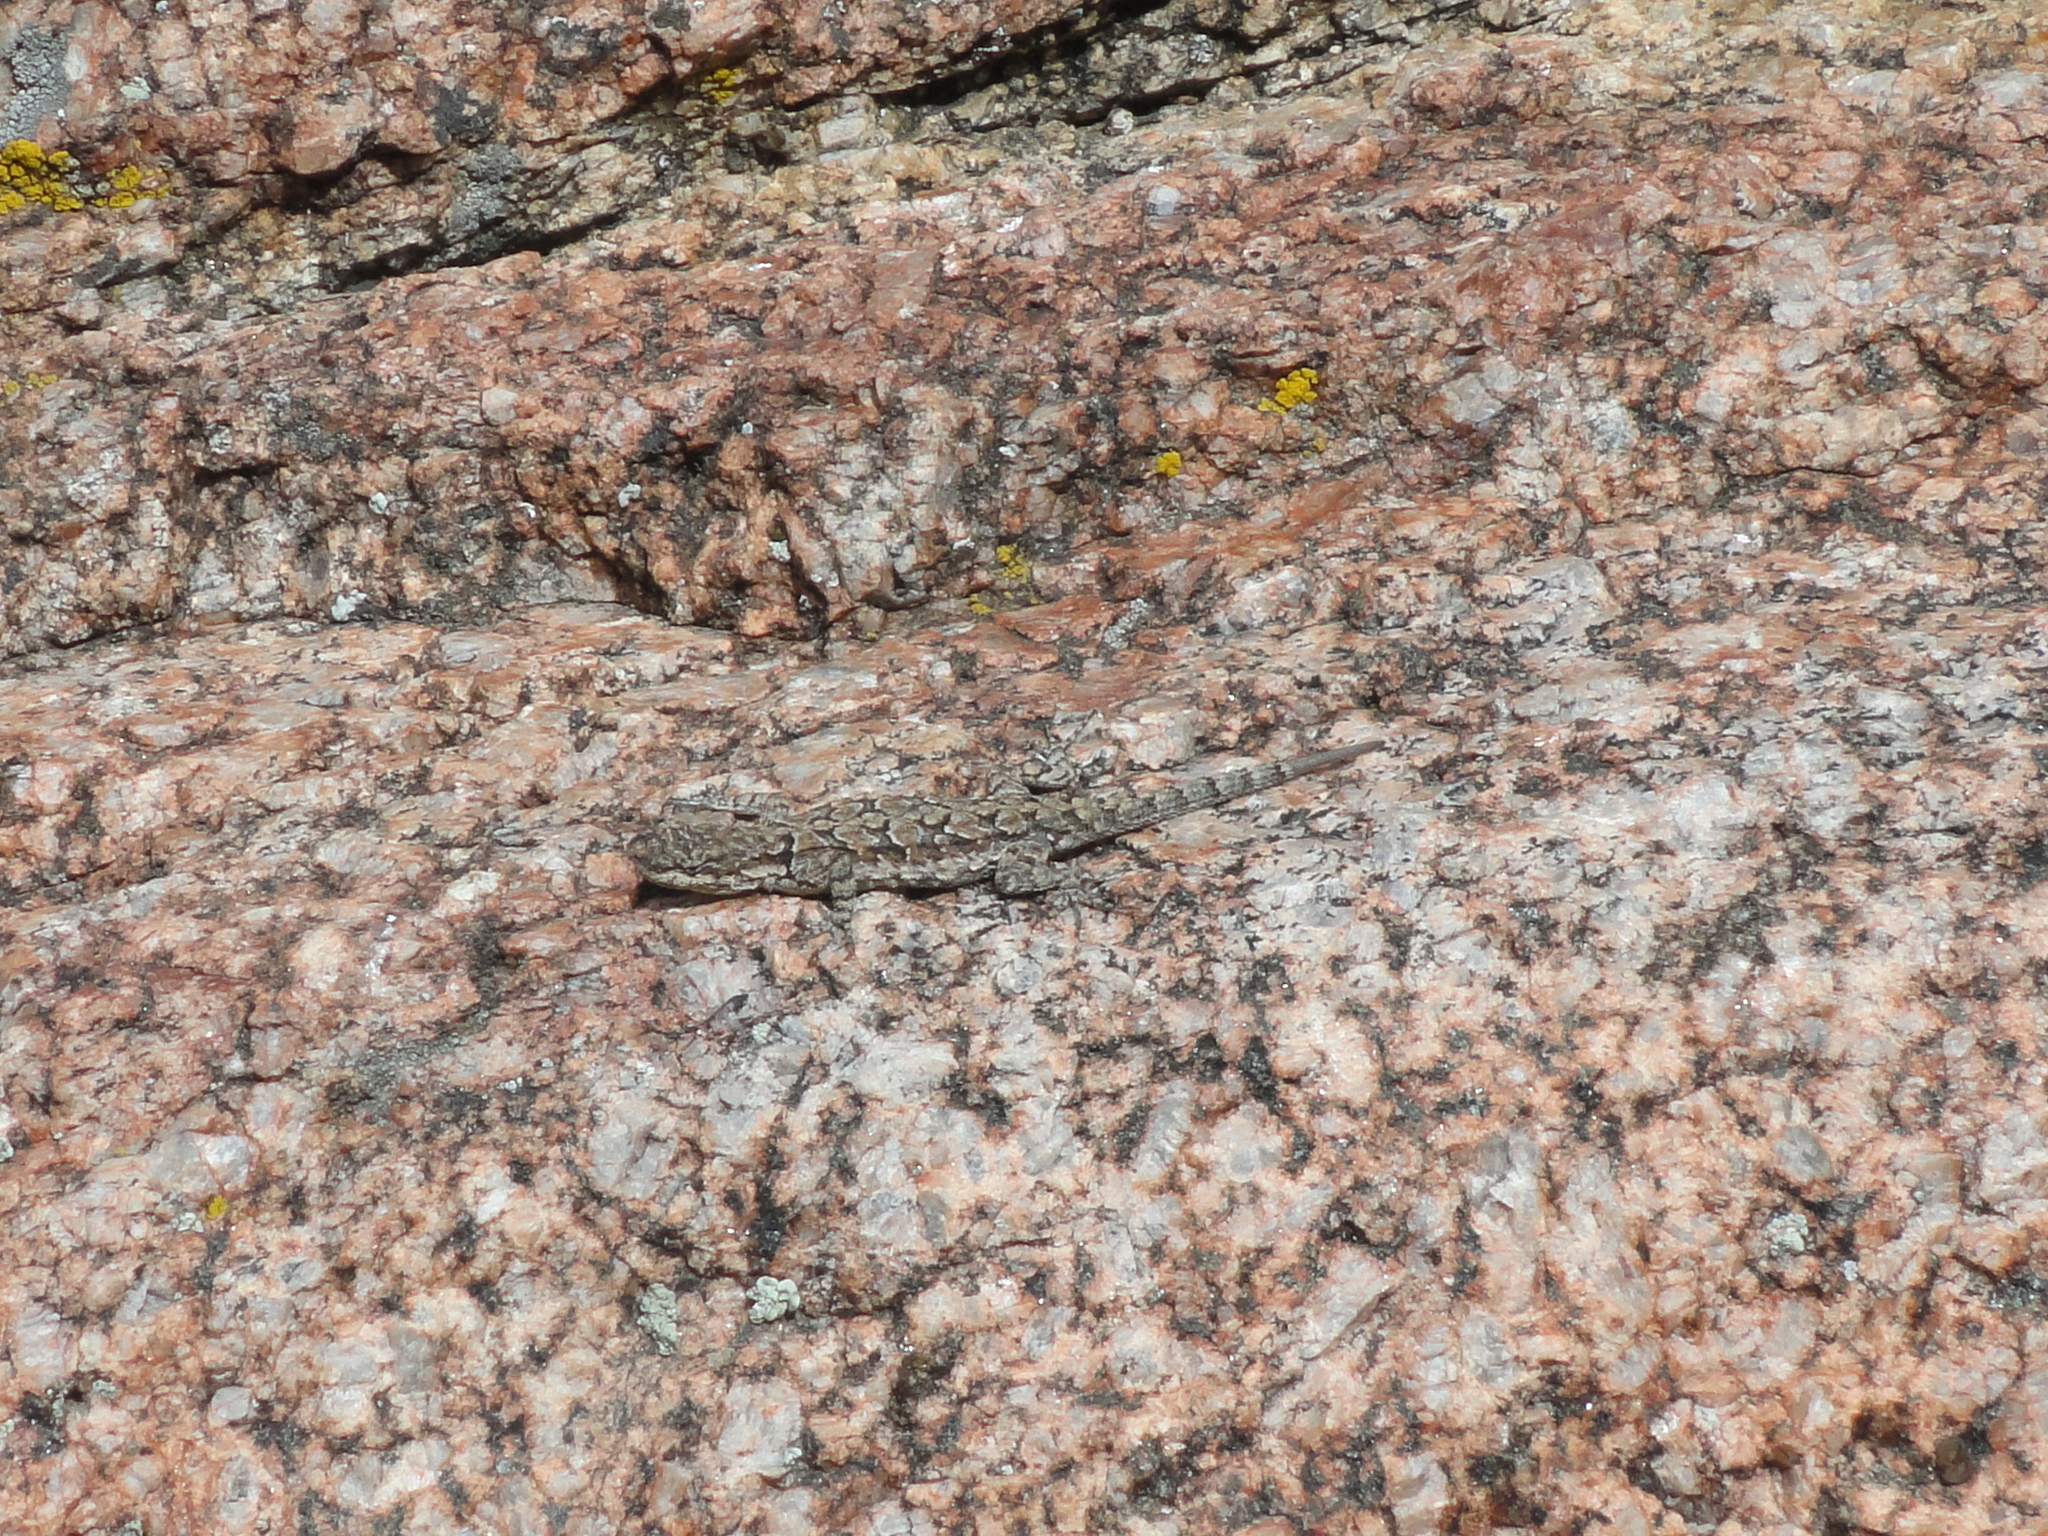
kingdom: Animalia
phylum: Chordata
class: Squamata
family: Phrynosomatidae
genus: Urosaurus
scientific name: Urosaurus ornatus
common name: Ornate tree lizard
